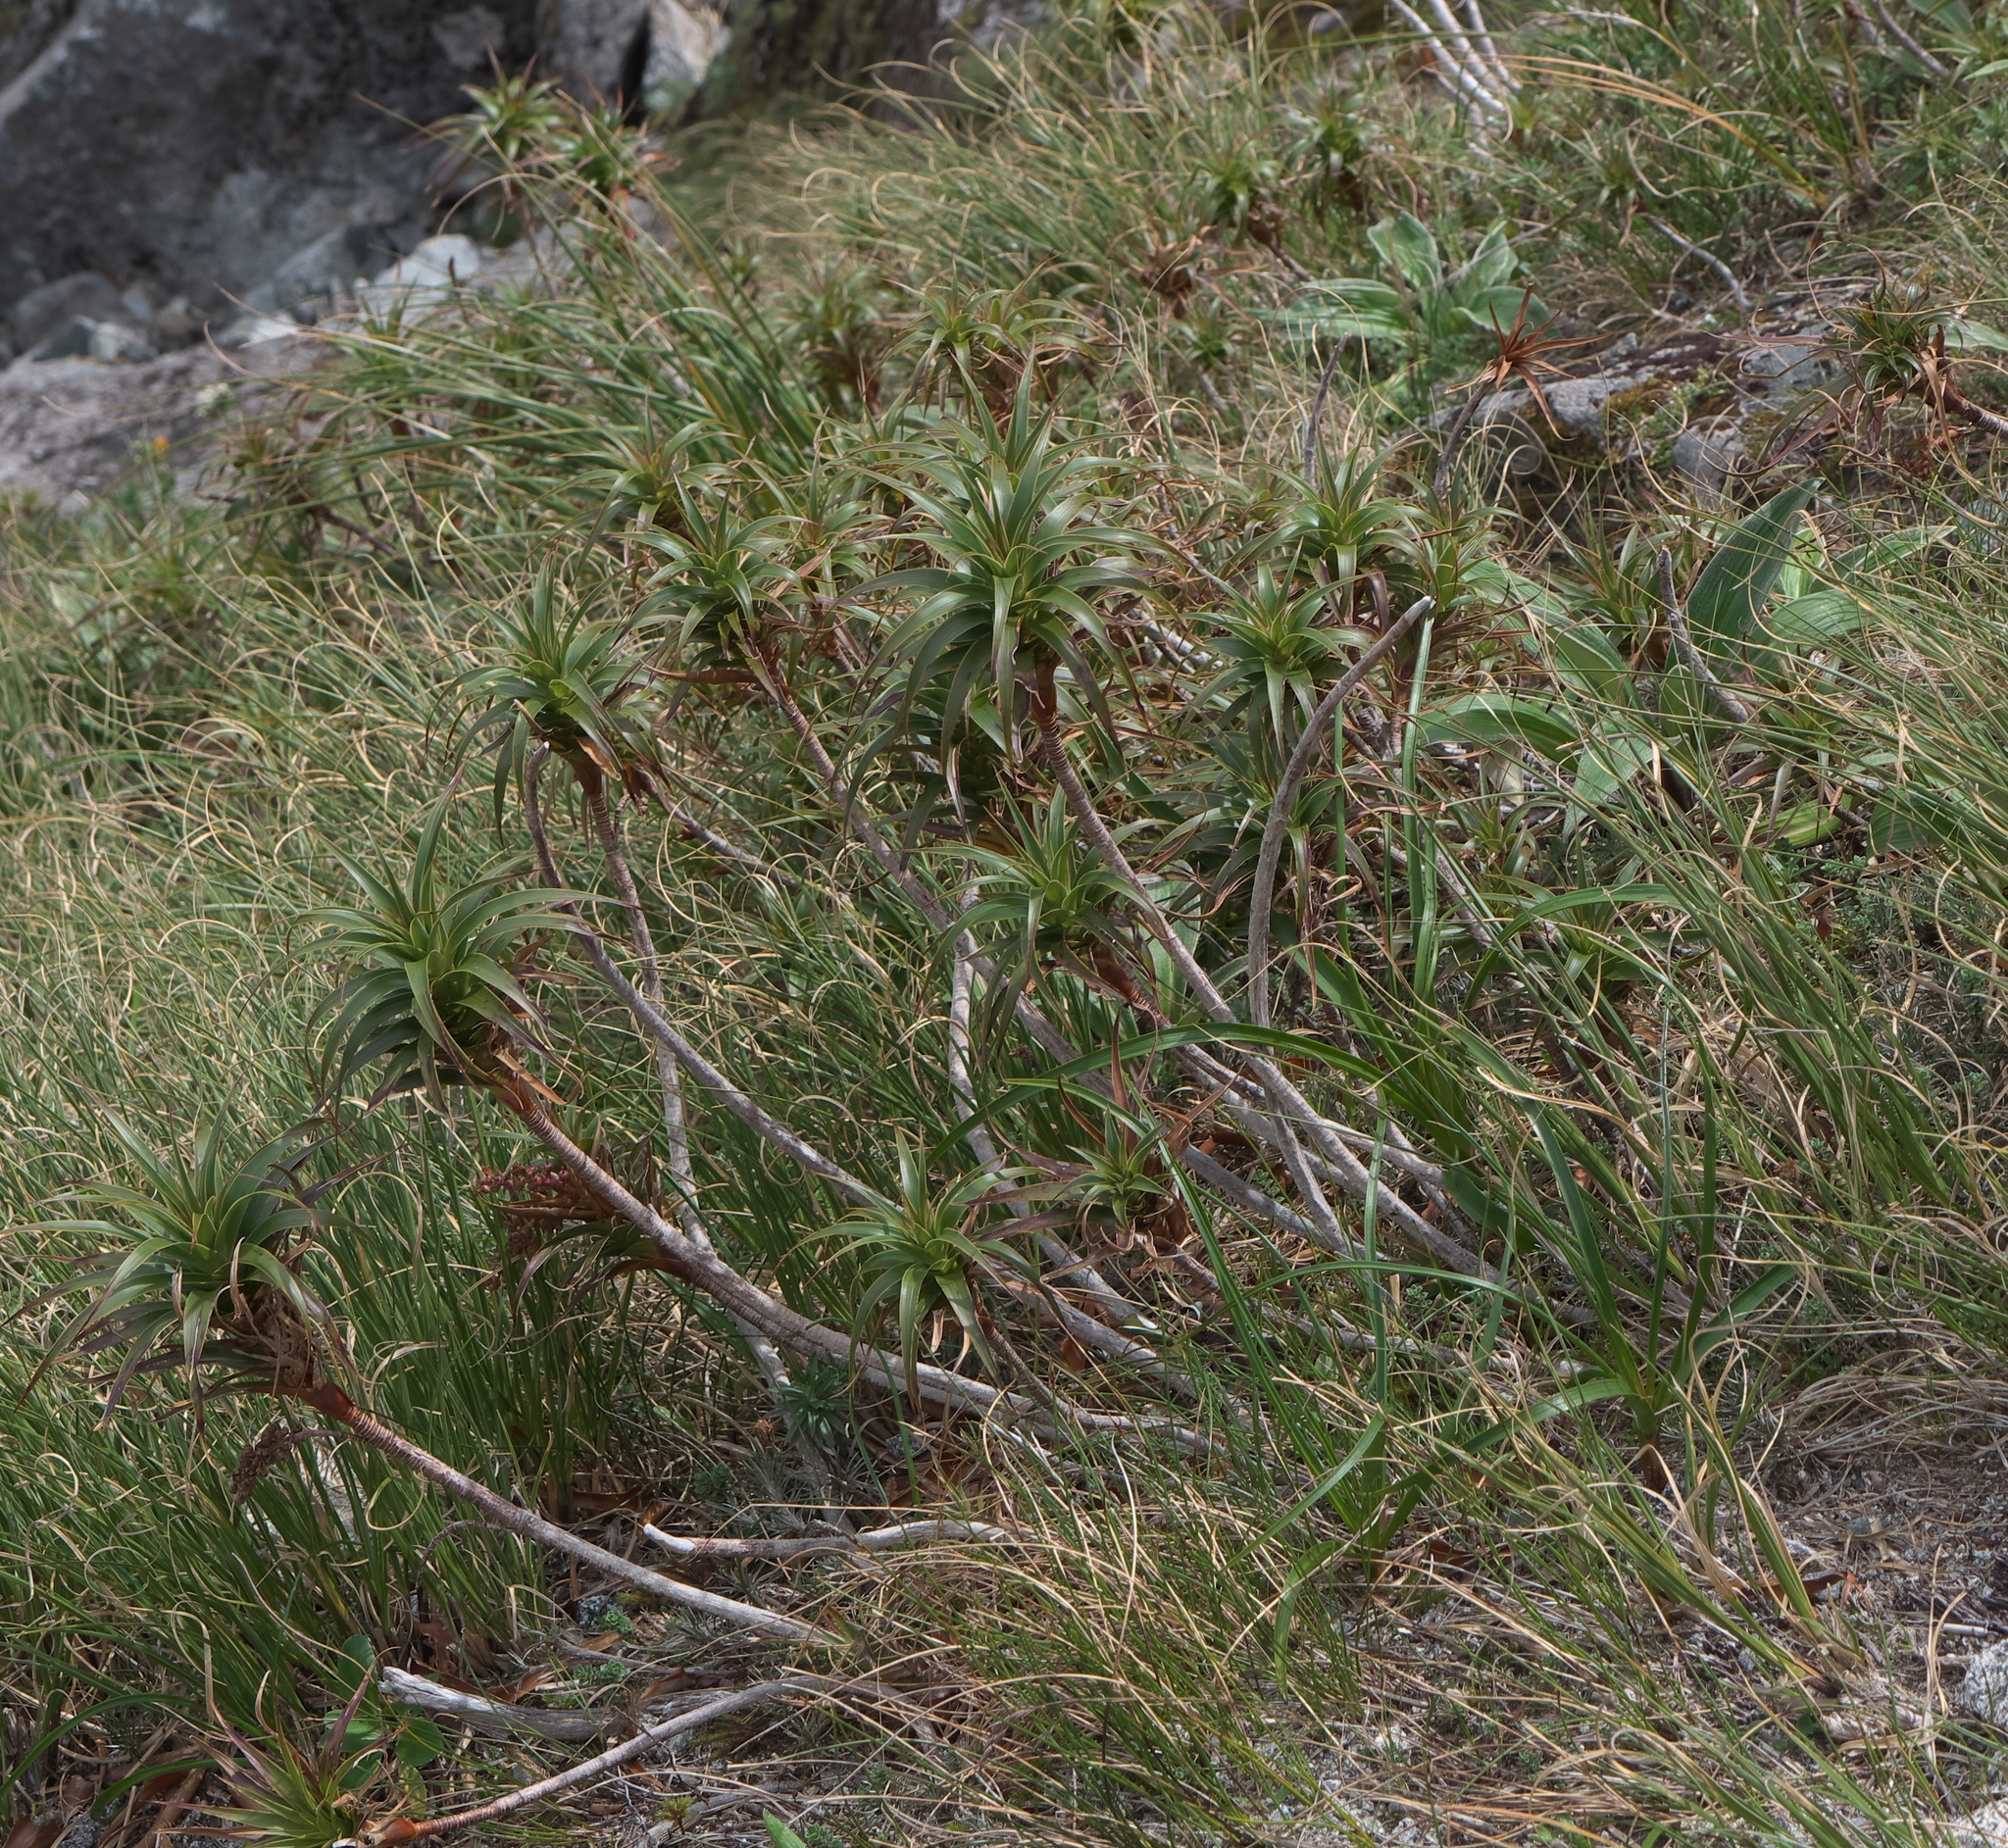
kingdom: Plantae
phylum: Tracheophyta
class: Magnoliopsida
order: Ericales
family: Ericaceae
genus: Dracophyllum
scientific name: Dracophyllum menziesii
